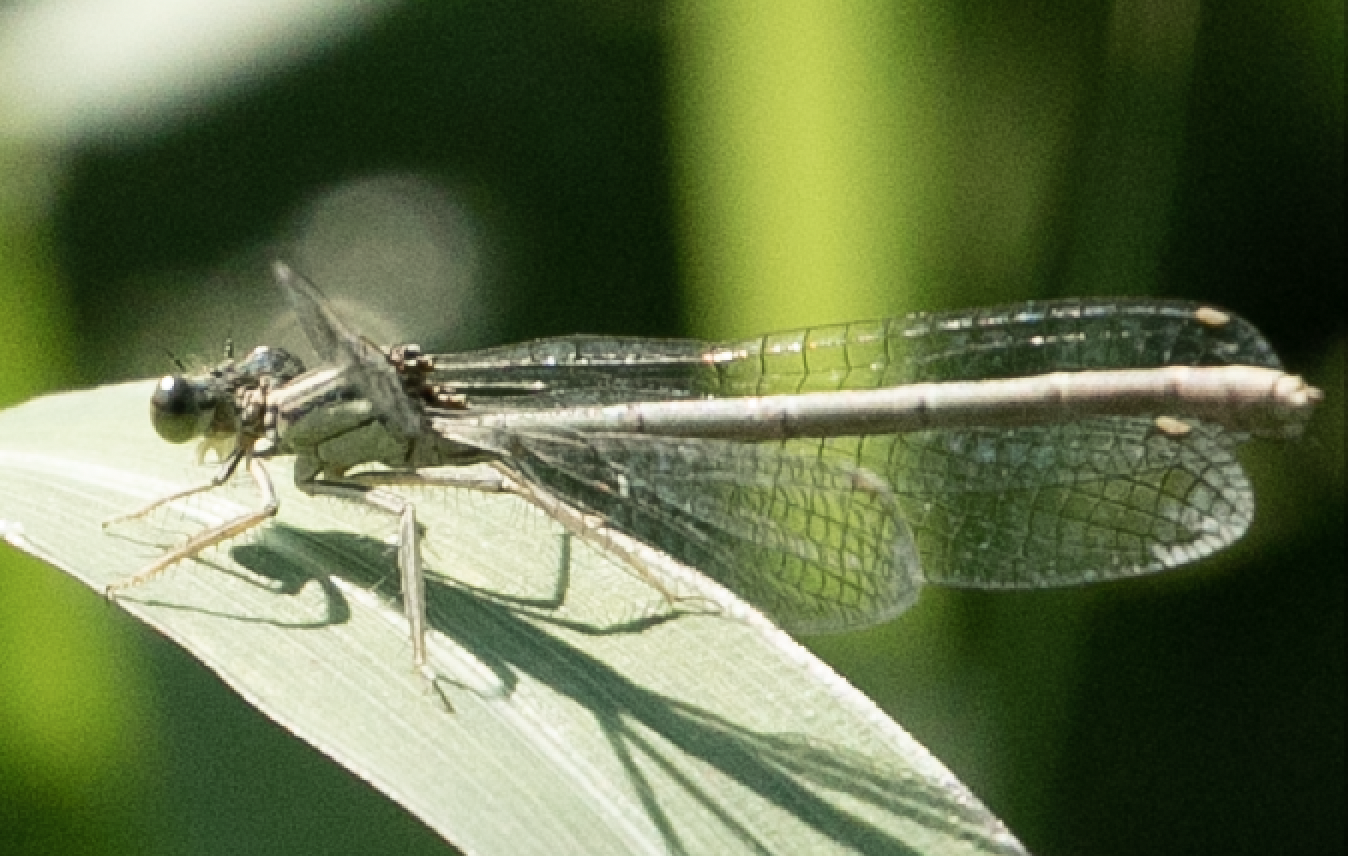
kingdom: Animalia
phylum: Arthropoda
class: Insecta
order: Odonata
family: Platycnemididae
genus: Platycnemis
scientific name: Platycnemis pennipes
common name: White-legged damselfly
